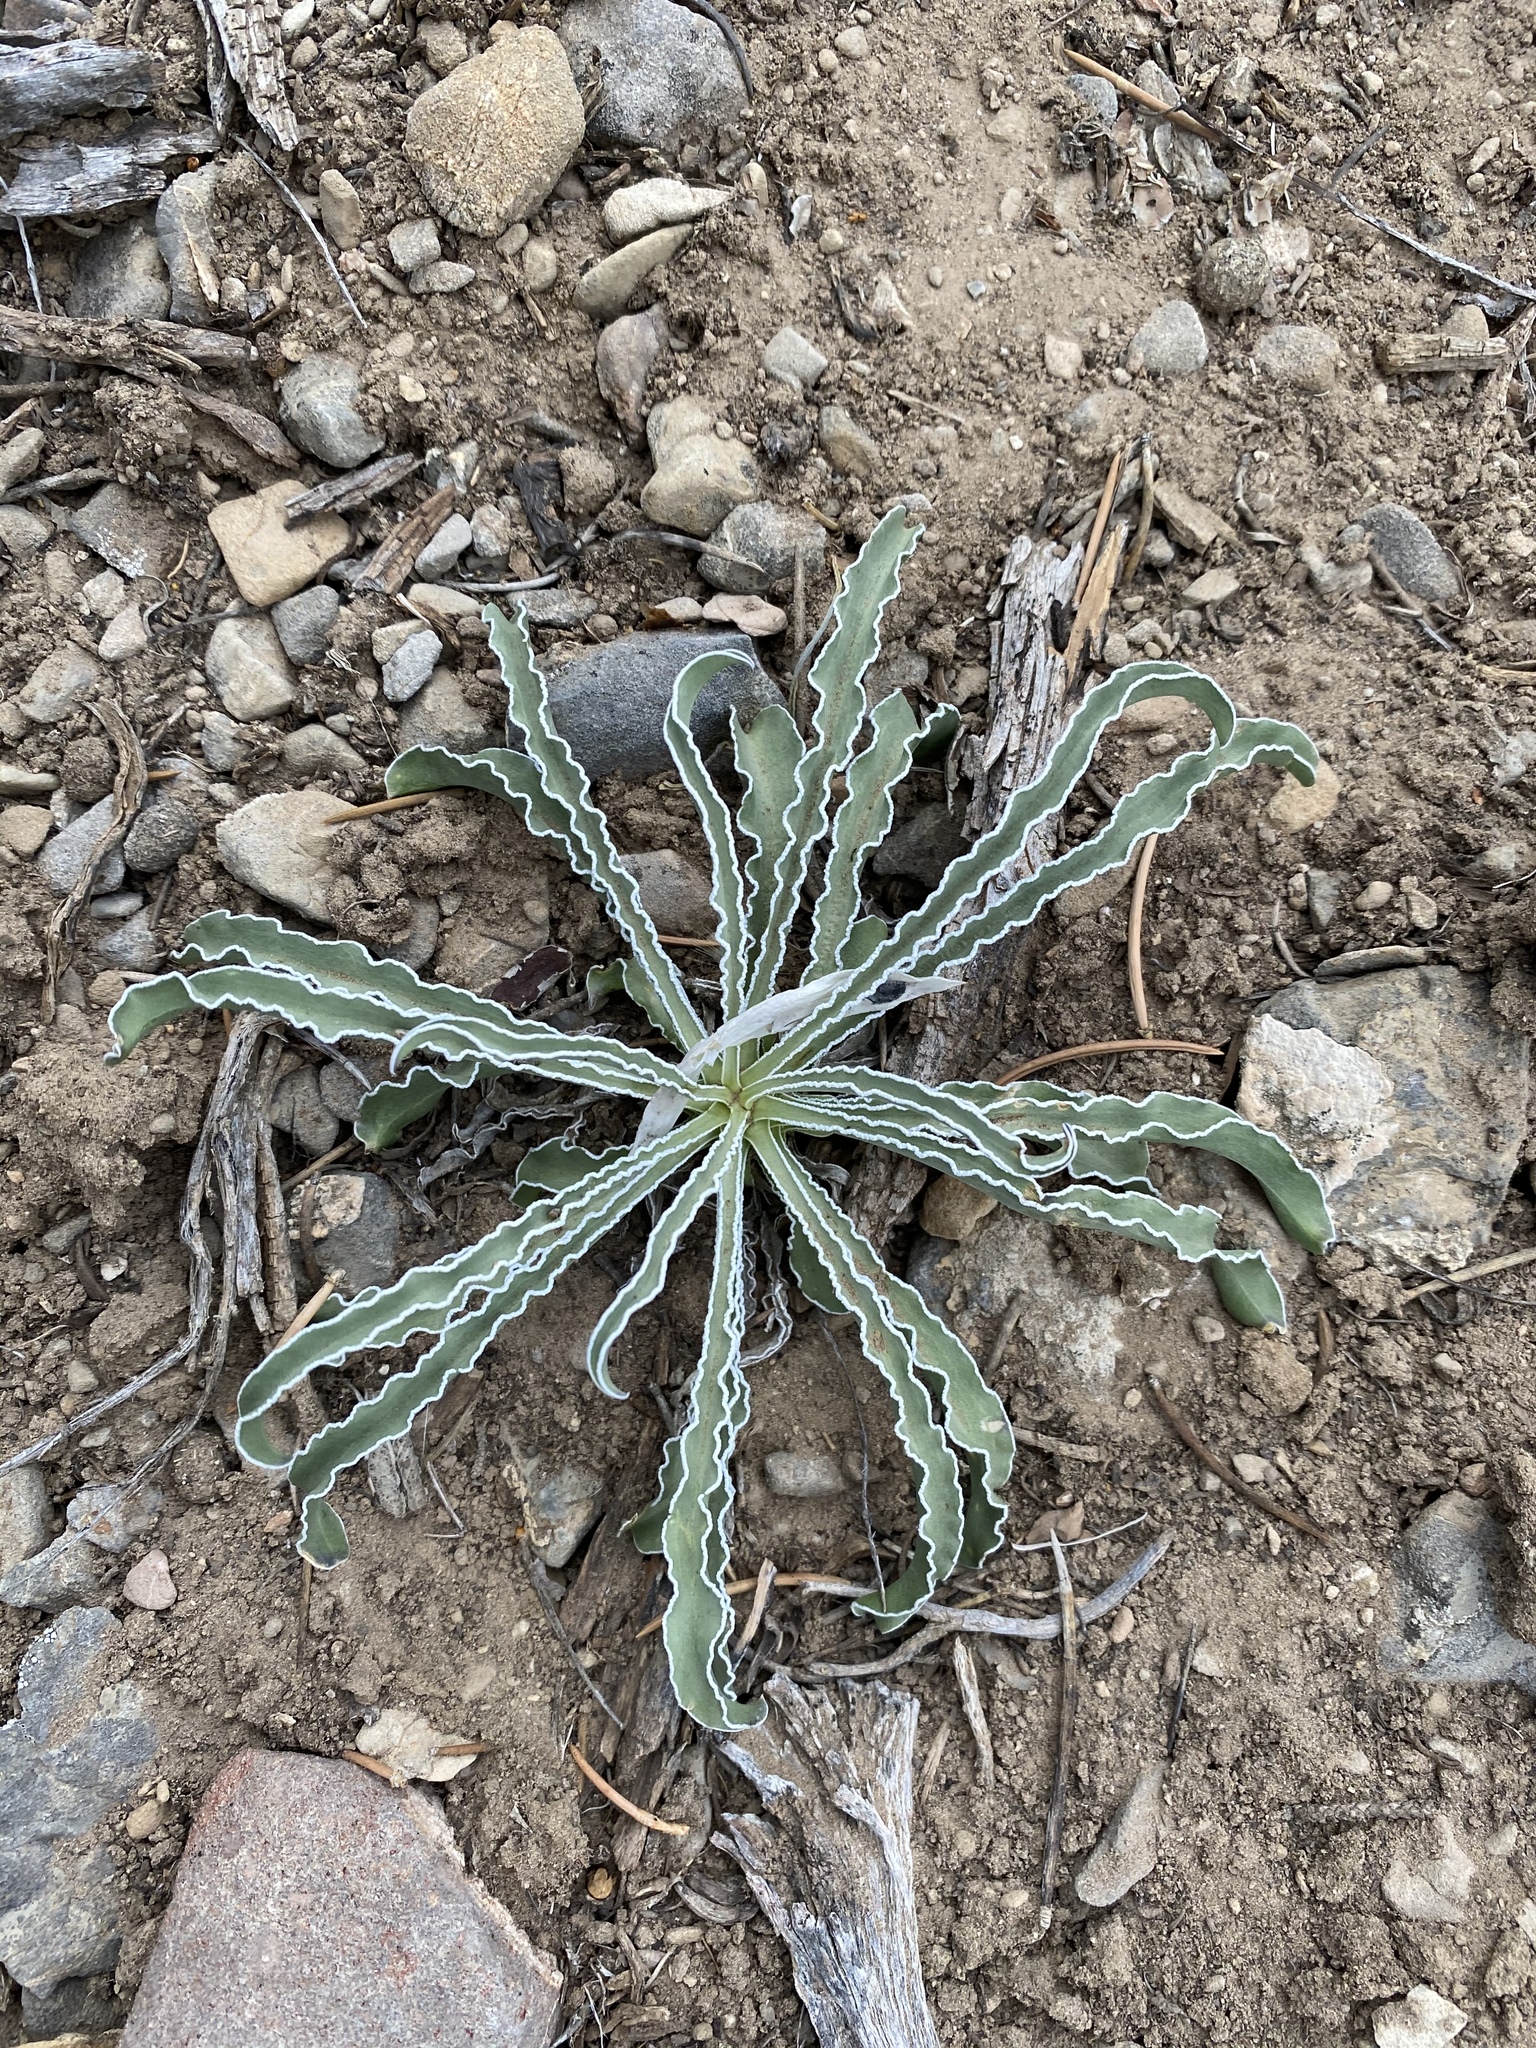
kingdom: Plantae
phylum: Tracheophyta
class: Magnoliopsida
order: Gentianales
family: Gentianaceae
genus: Frasera
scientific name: Frasera albomarginata
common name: Desert frasera
